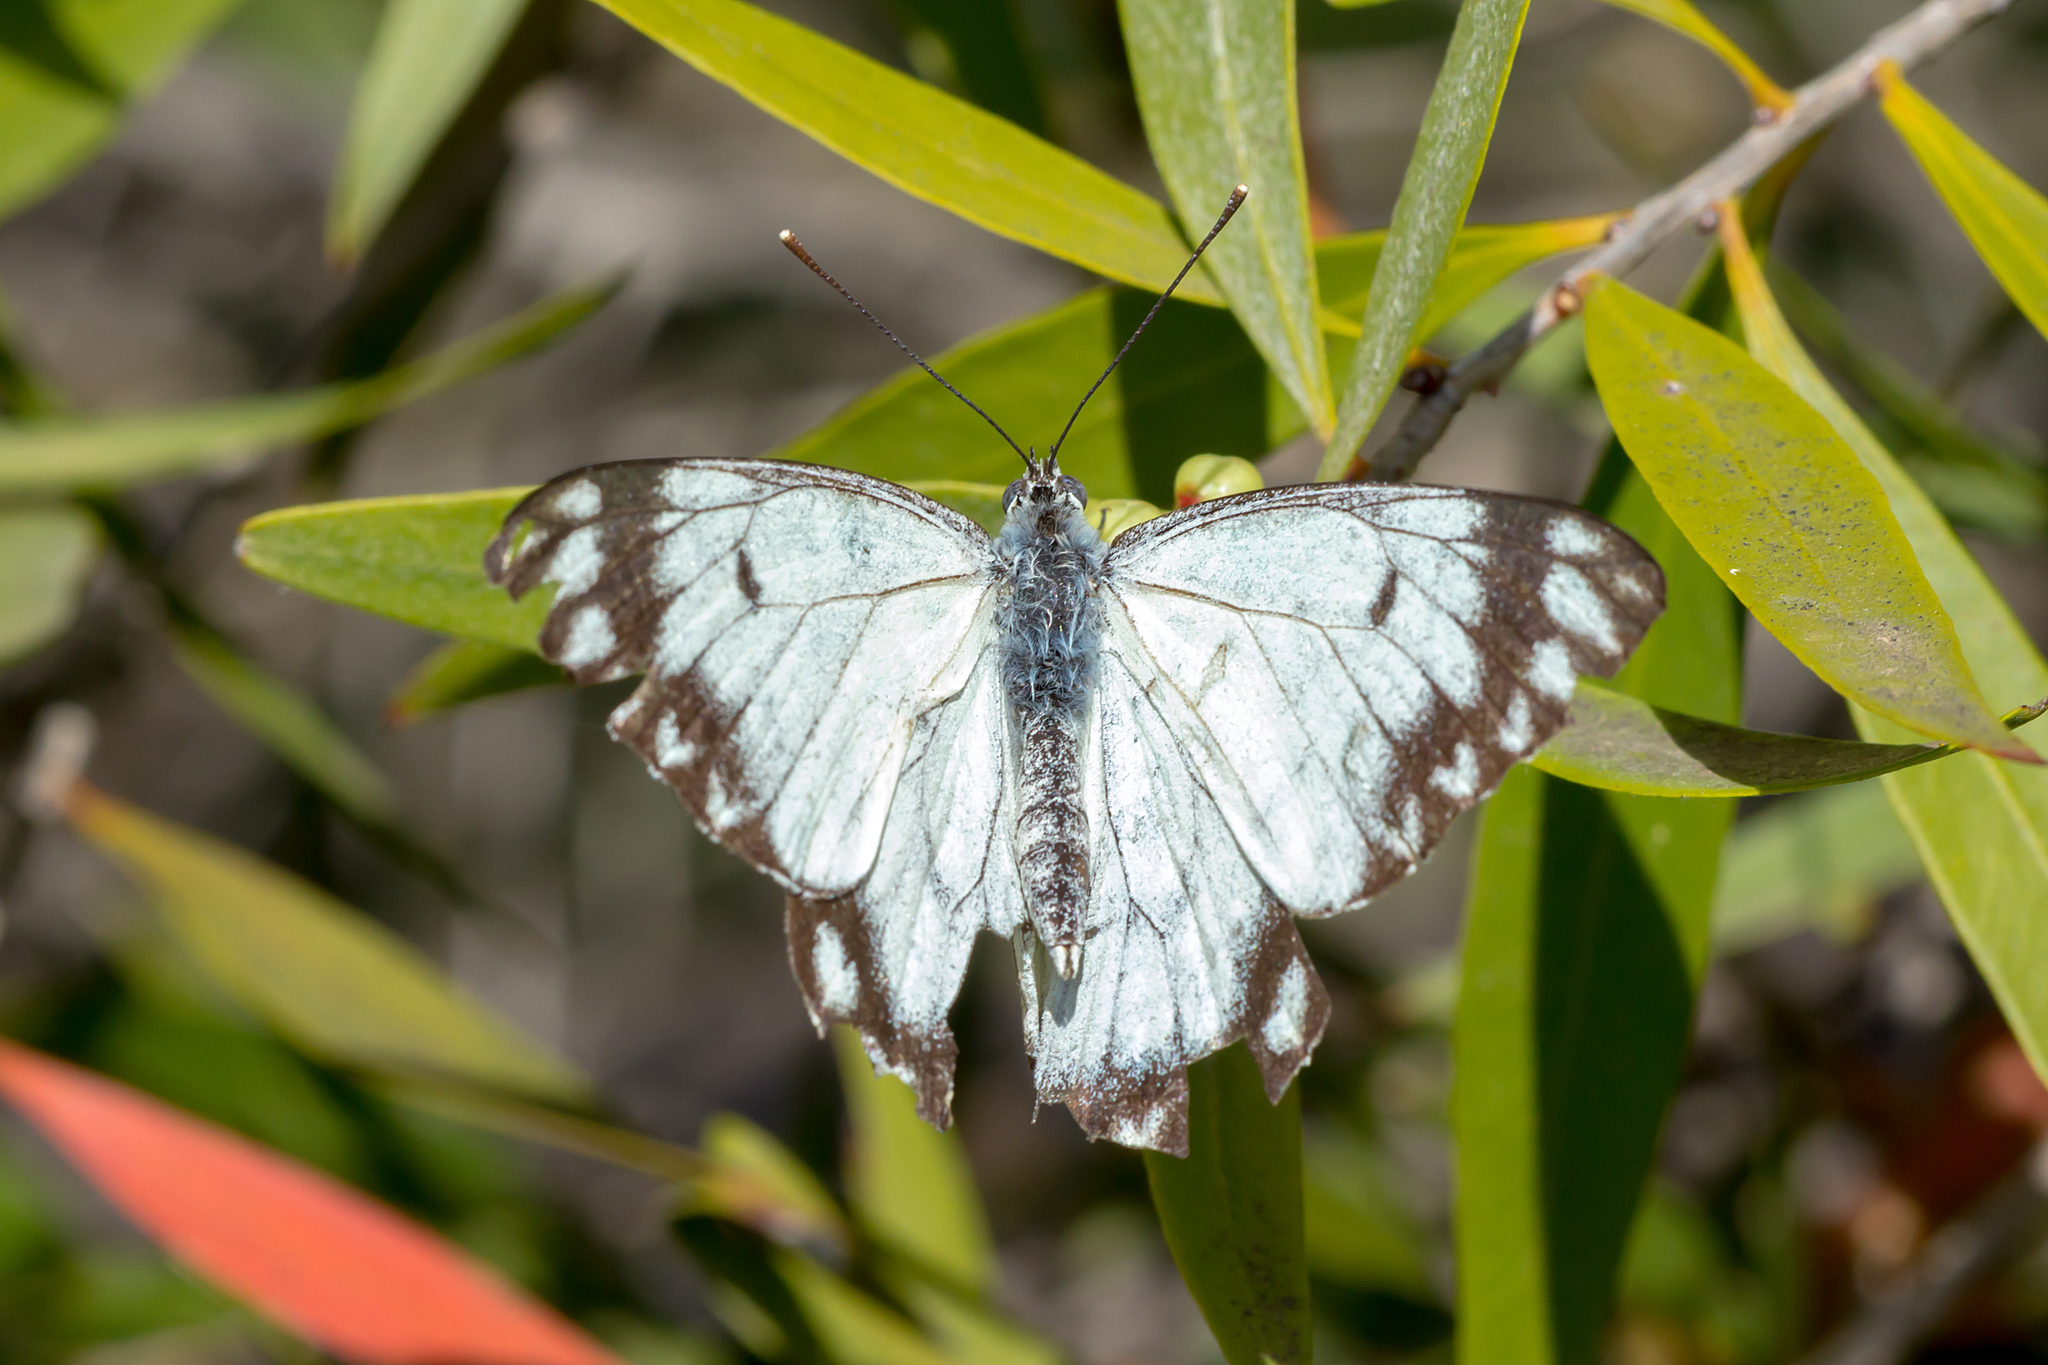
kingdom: Animalia
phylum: Arthropoda
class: Insecta
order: Lepidoptera
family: Pieridae
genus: Belenois
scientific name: Belenois java
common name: Caper white
